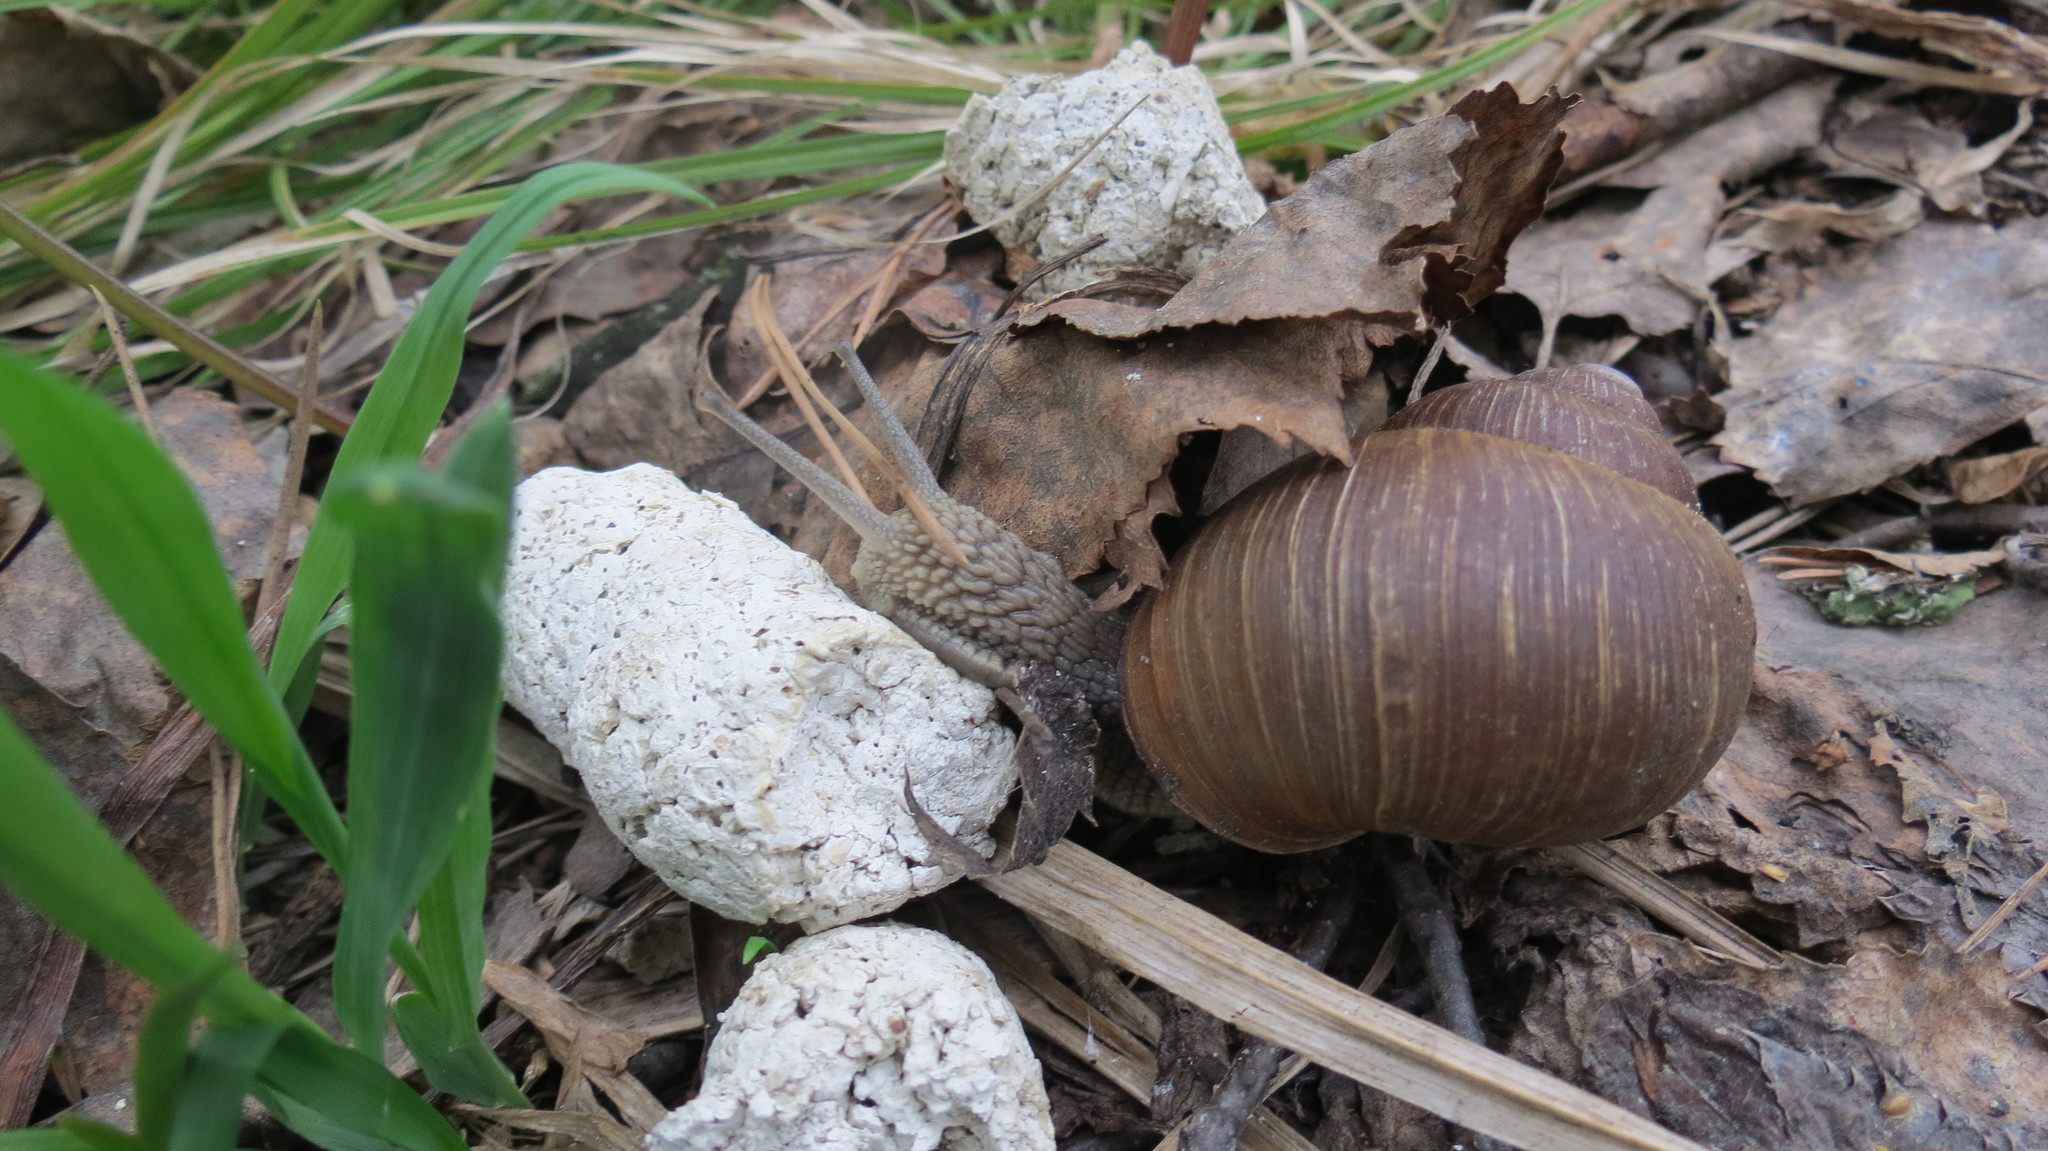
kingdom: Animalia
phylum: Mollusca
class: Gastropoda
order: Stylommatophora
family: Helicidae
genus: Helix
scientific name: Helix pomatia
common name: Roman snail
